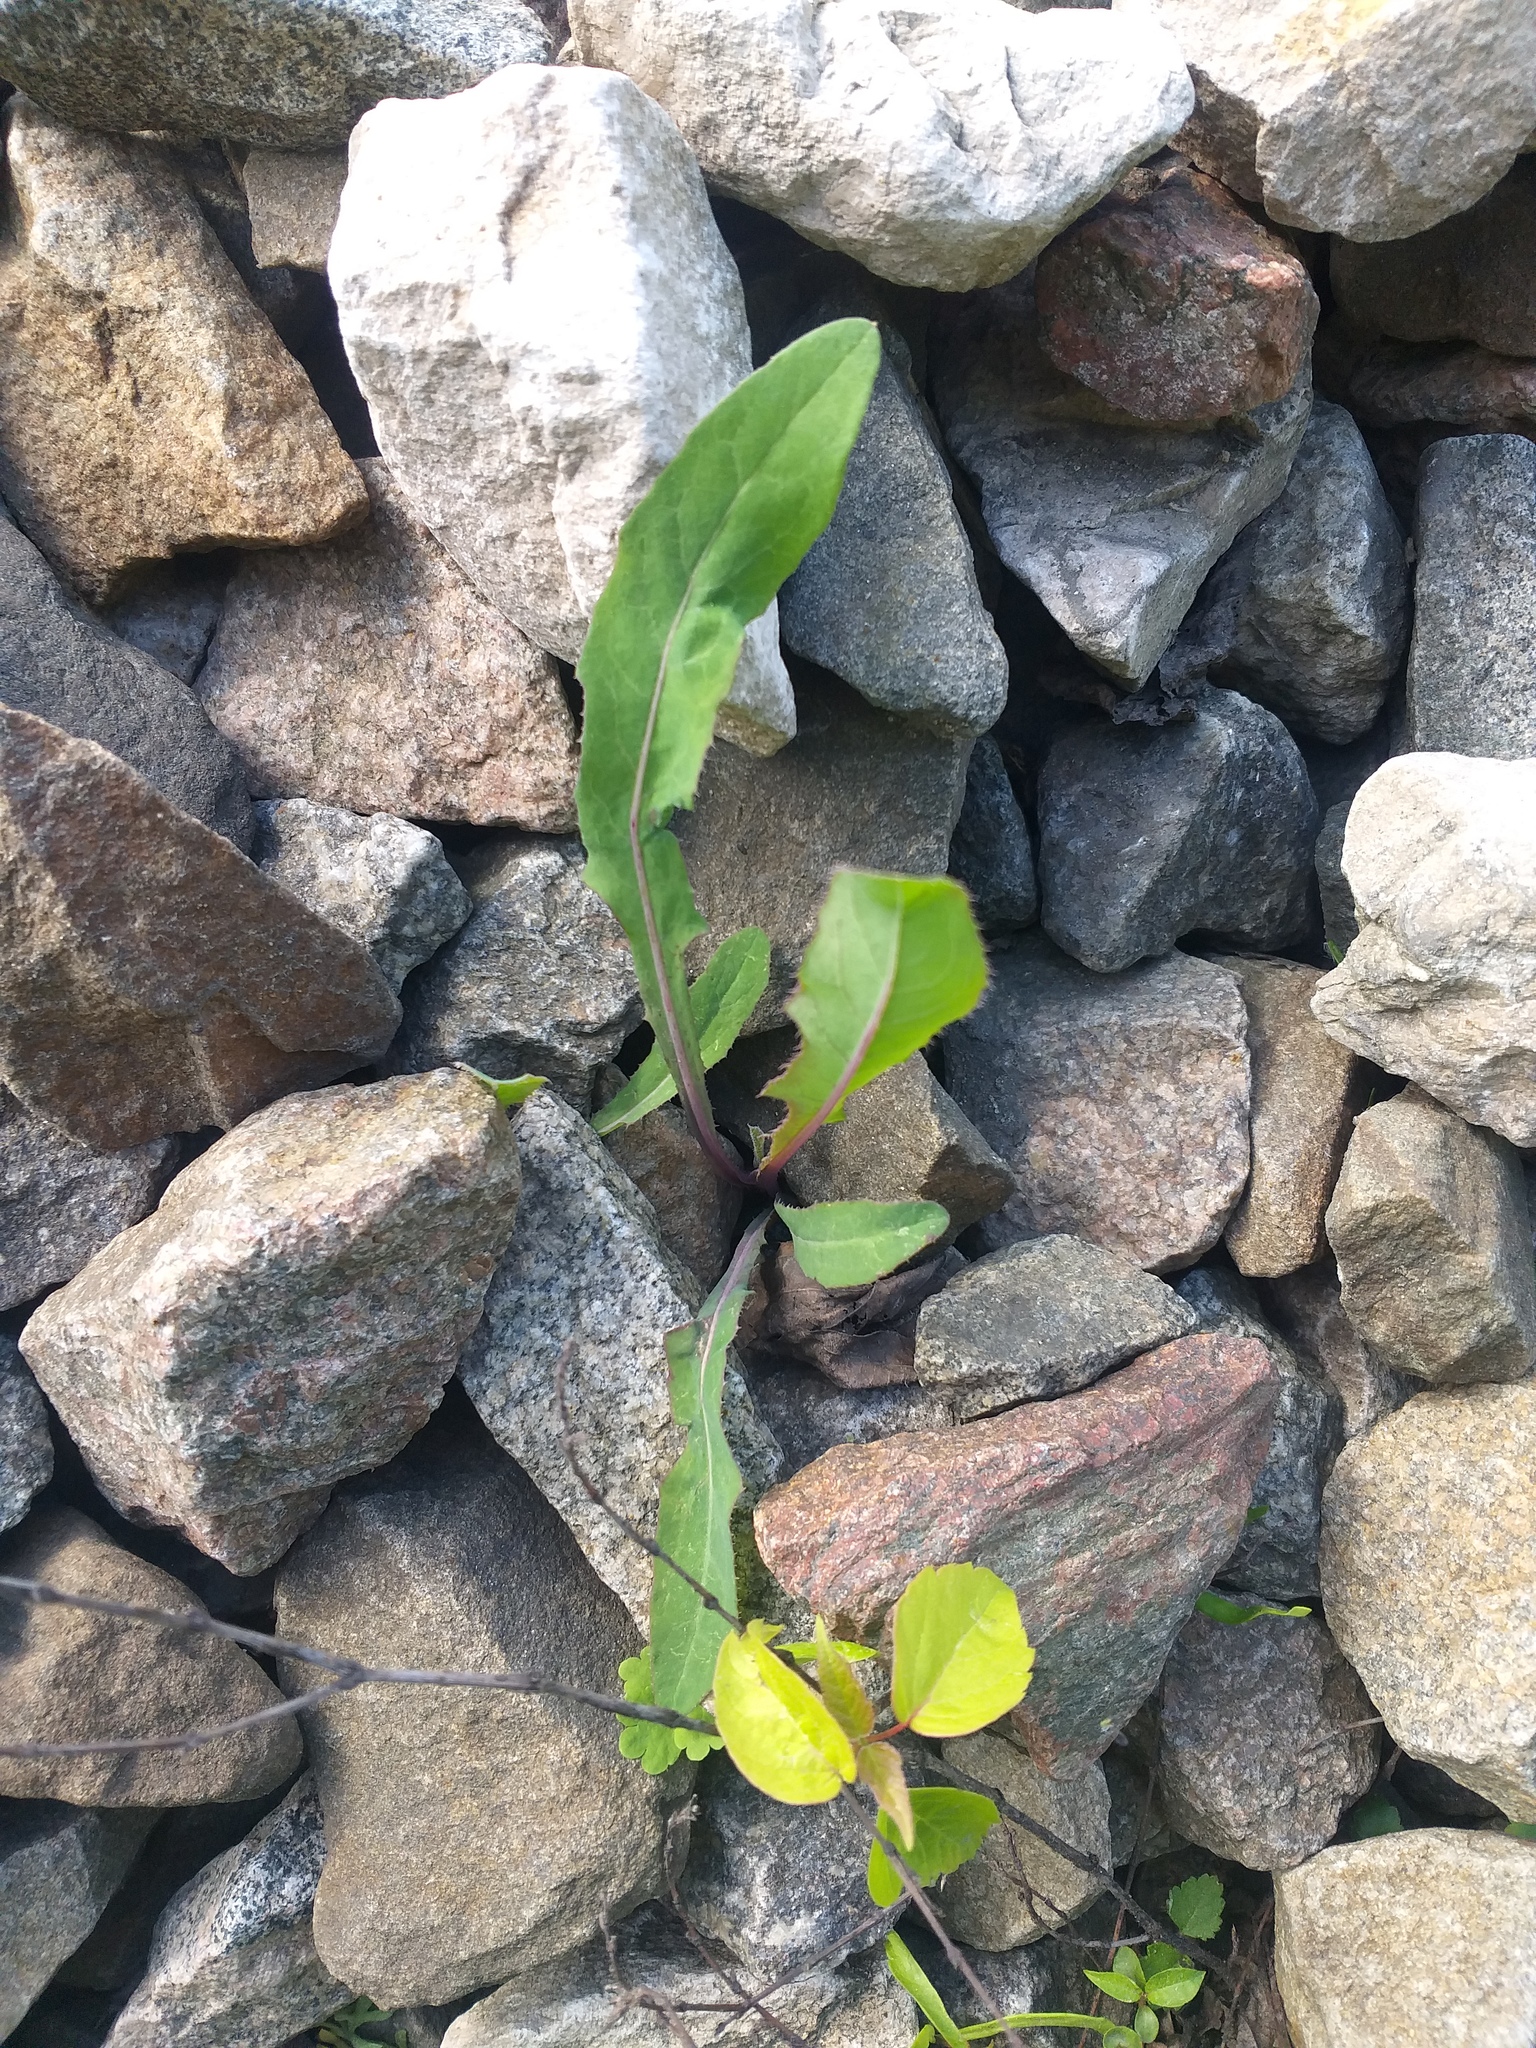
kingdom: Plantae
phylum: Tracheophyta
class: Magnoliopsida
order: Asterales
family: Asteraceae
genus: Sonchus
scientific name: Sonchus arvensis
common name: Perennial sow-thistle
